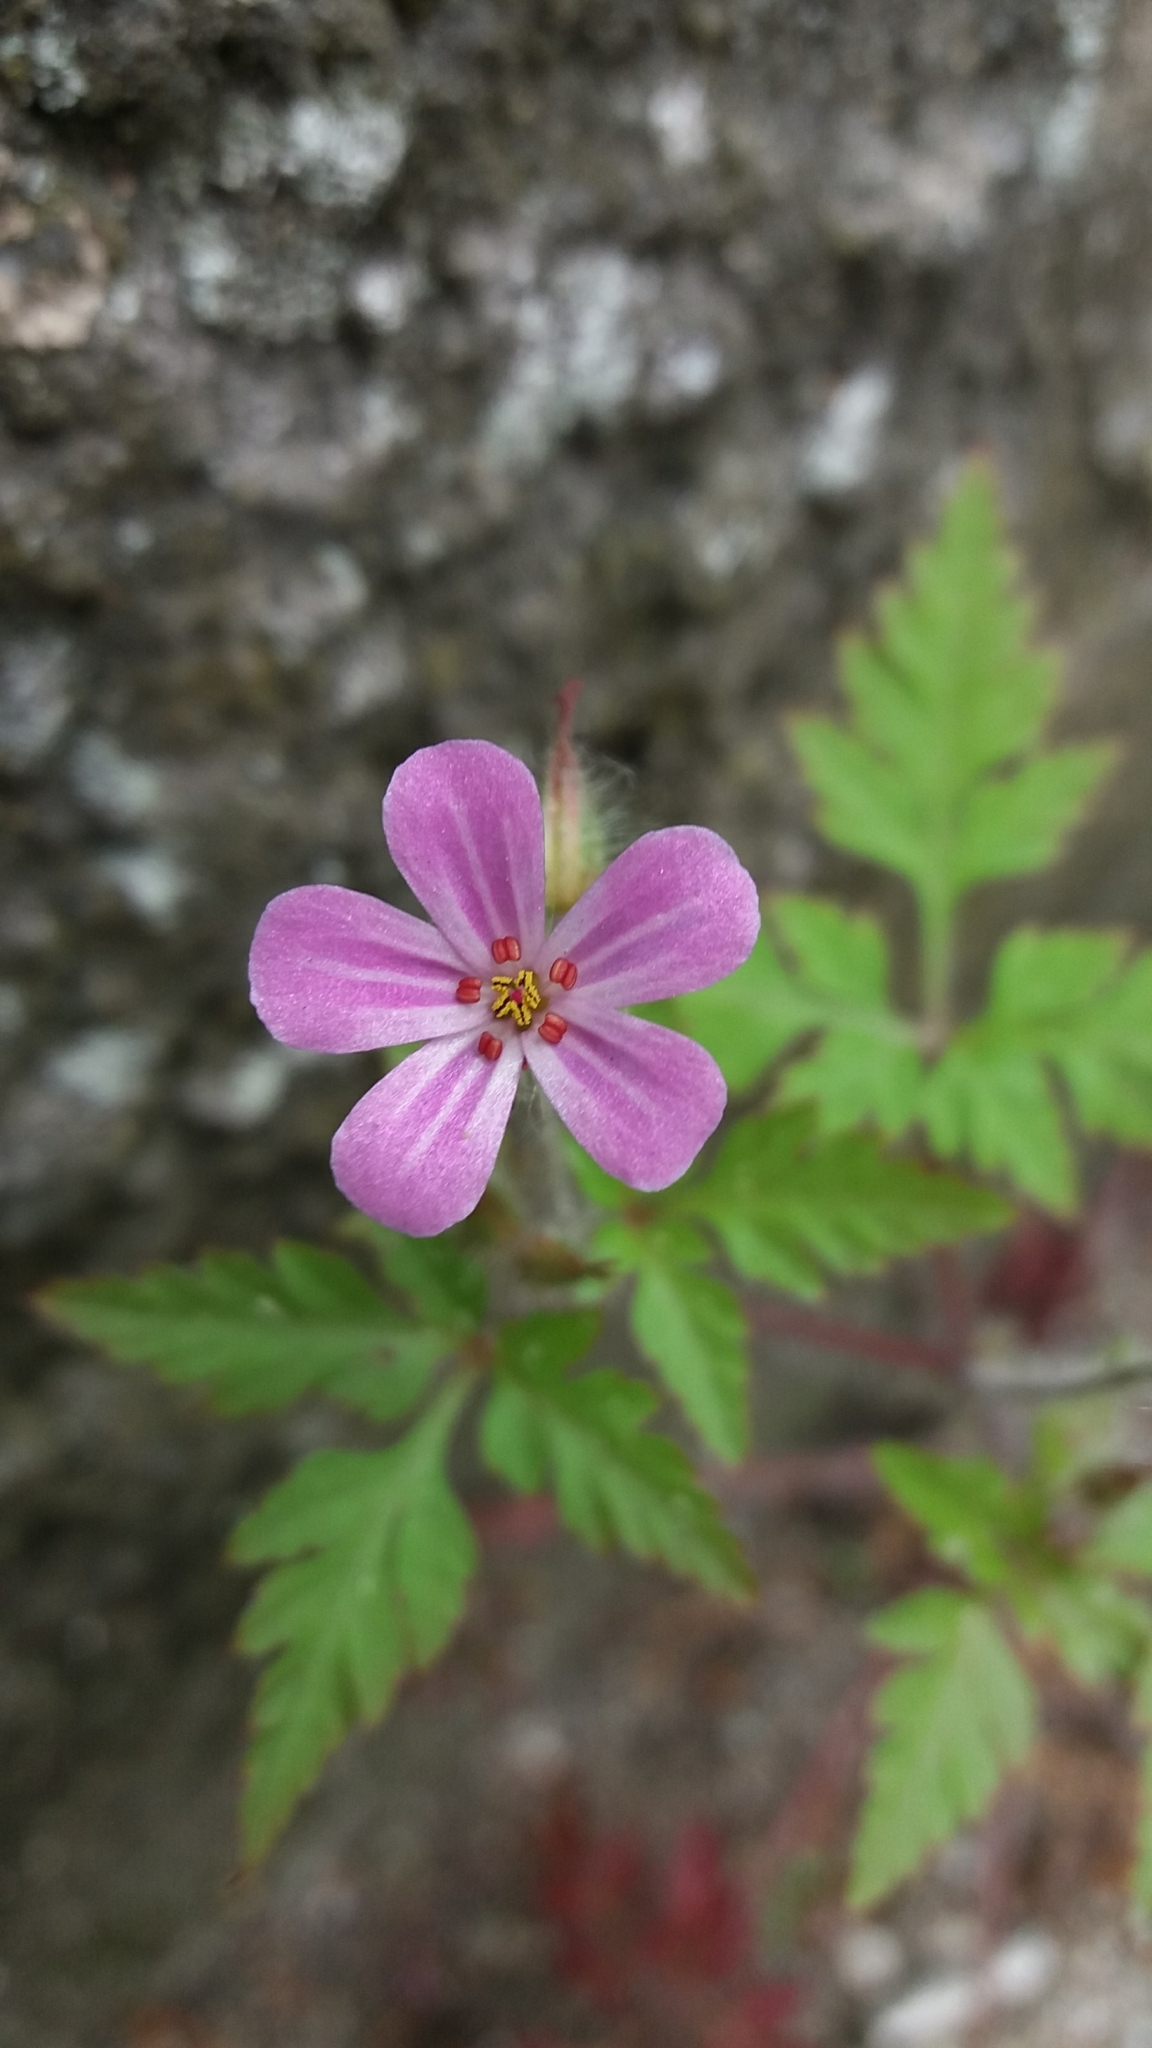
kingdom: Plantae
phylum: Tracheophyta
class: Magnoliopsida
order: Geraniales
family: Geraniaceae
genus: Geranium
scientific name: Geranium robertianum
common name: Herb-robert
